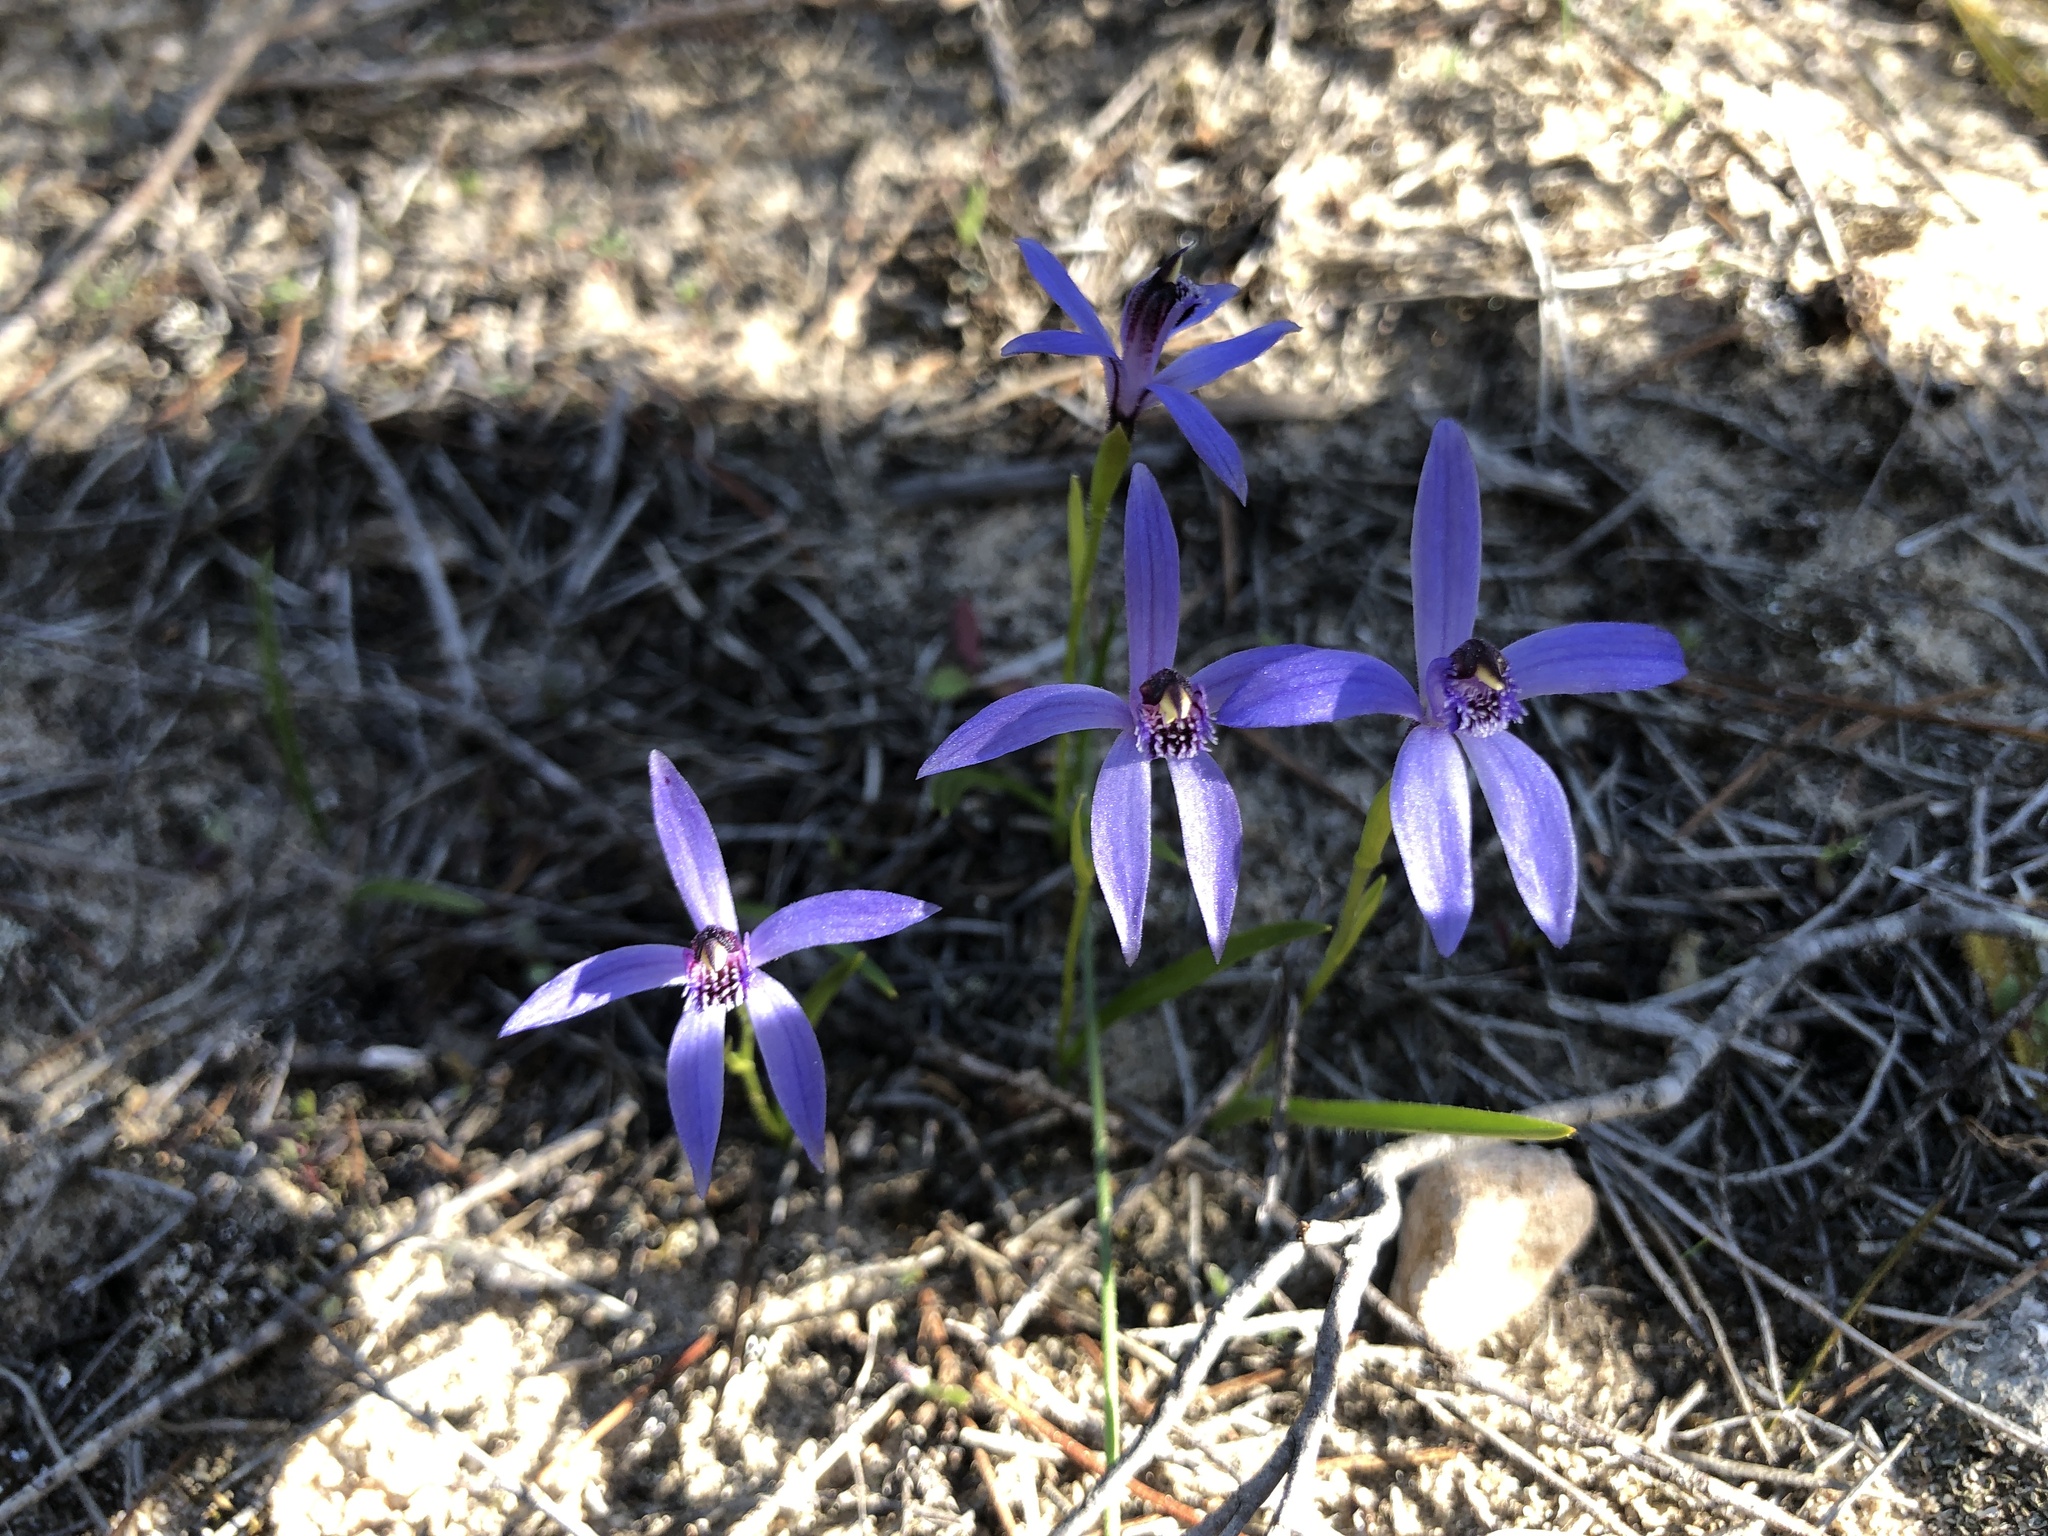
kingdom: Plantae
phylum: Tracheophyta
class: Liliopsida
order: Asparagales
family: Orchidaceae
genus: Pheladenia
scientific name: Pheladenia deformis
